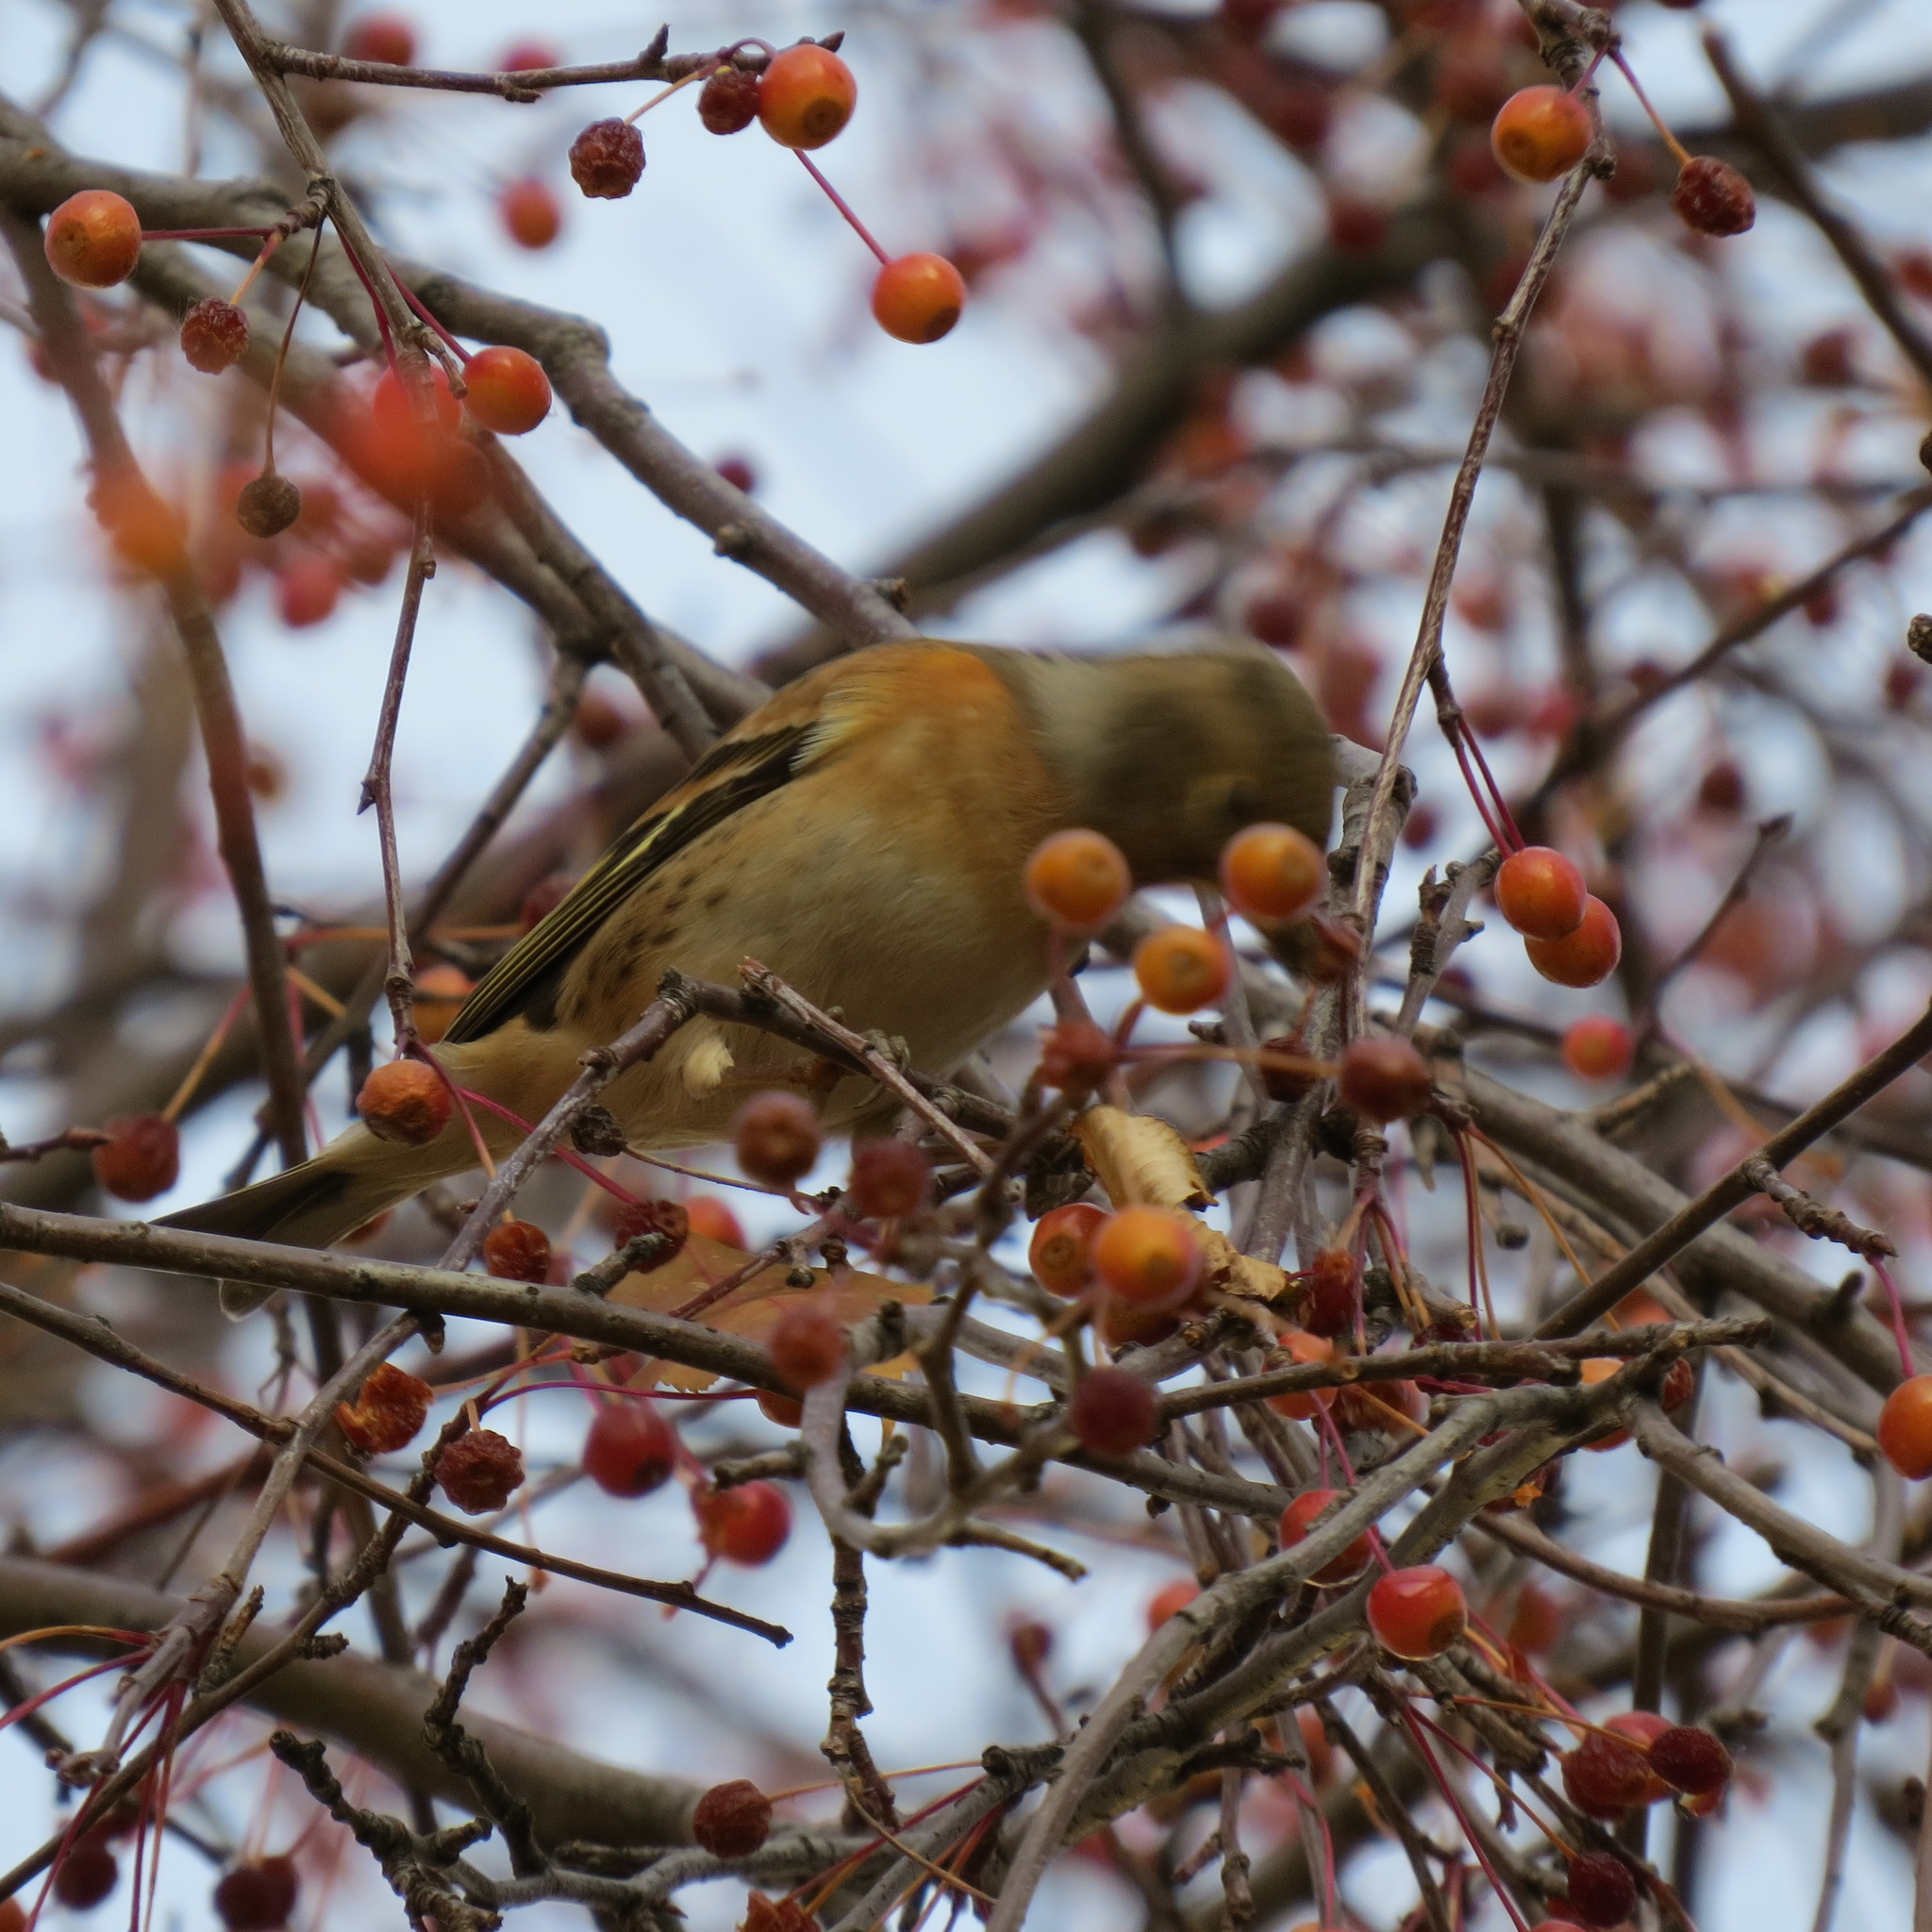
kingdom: Animalia
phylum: Chordata
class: Aves
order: Passeriformes
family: Fringillidae
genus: Fringilla
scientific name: Fringilla montifringilla
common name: Brambling
